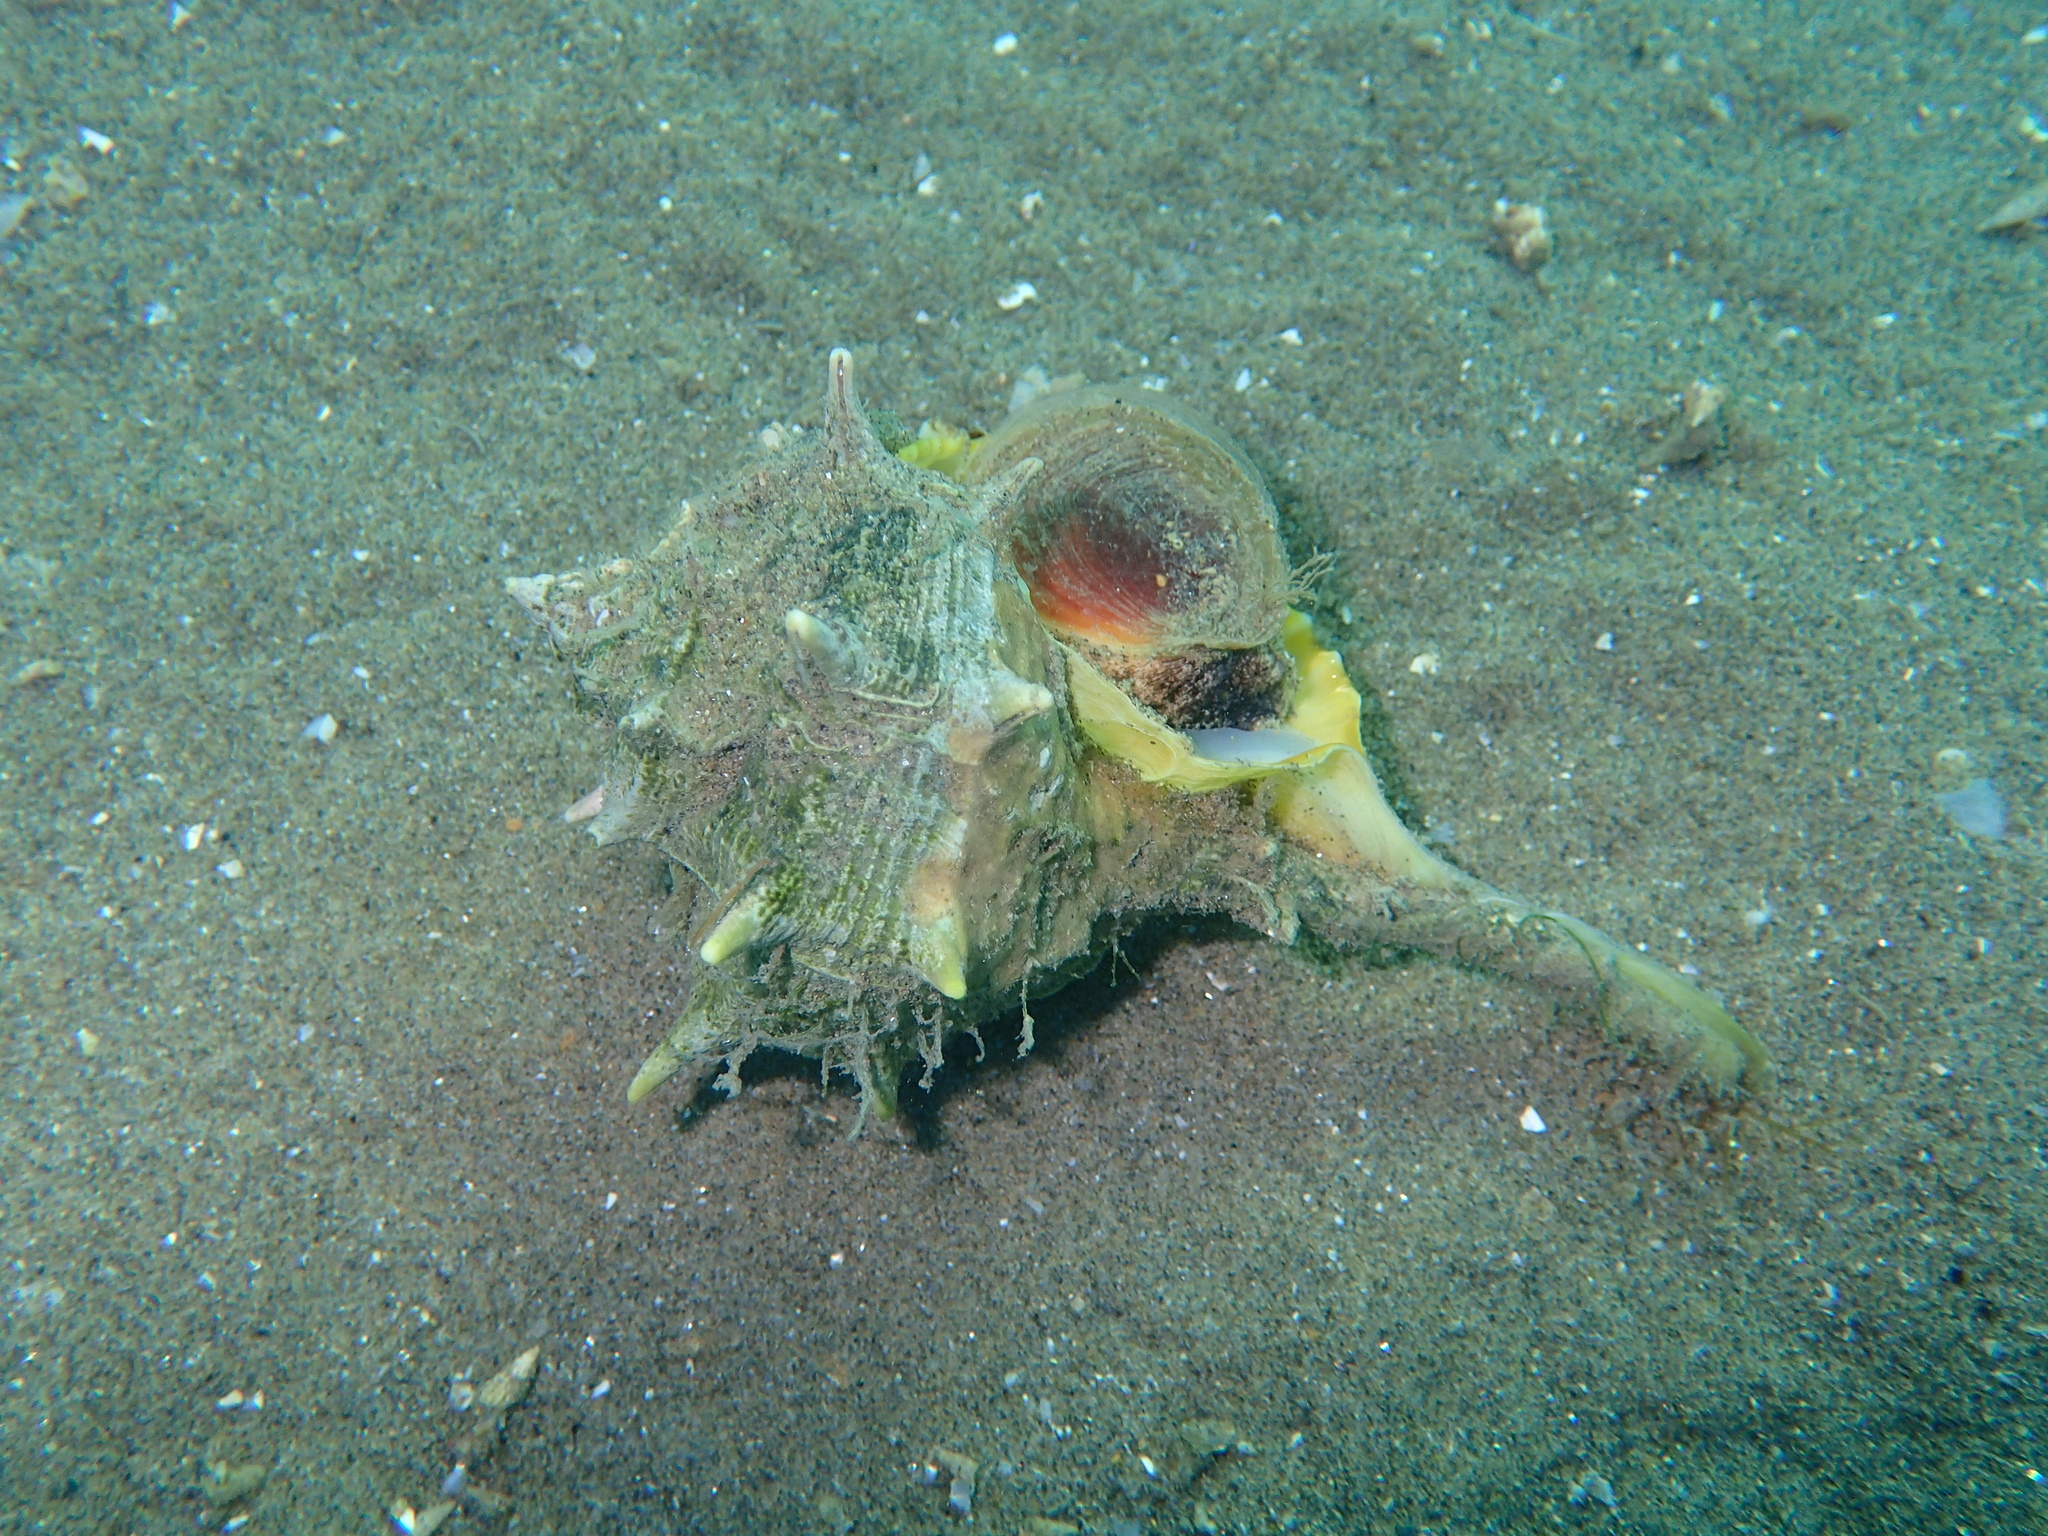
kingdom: Animalia
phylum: Mollusca
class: Gastropoda
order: Neogastropoda
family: Muricidae
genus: Bolinus
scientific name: Bolinus brandaris
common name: Dye murex
